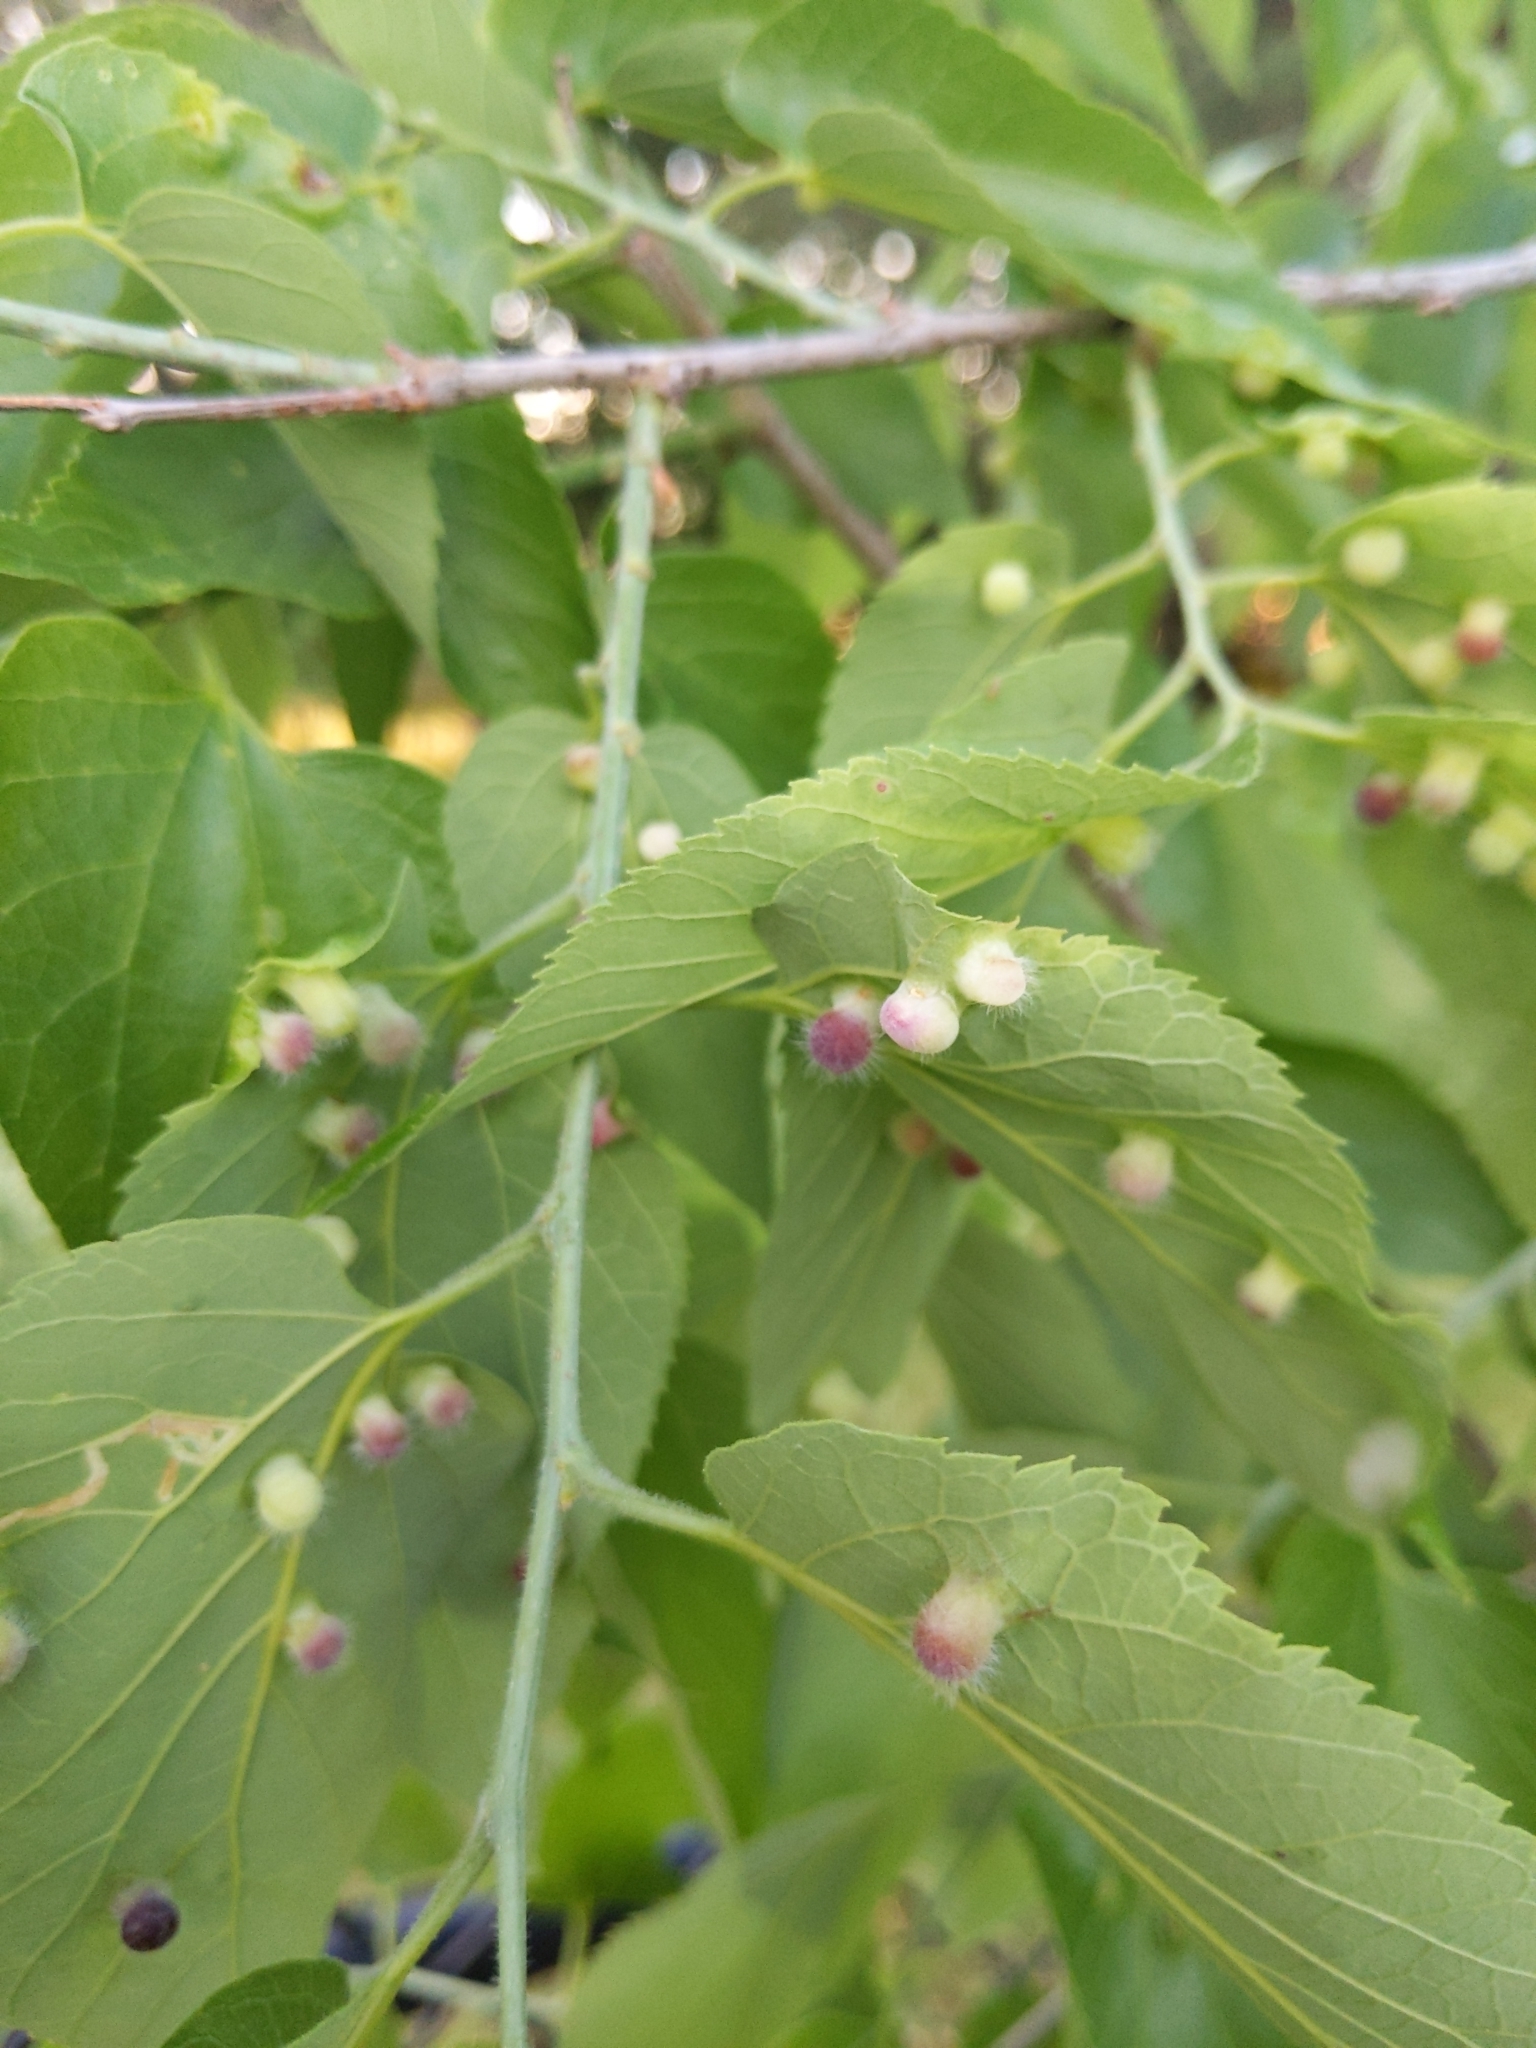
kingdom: Animalia
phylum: Arthropoda
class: Insecta
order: Hemiptera
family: Aphalaridae
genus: Pachypsylla
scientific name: Pachypsylla celtidismamma
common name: Hackberry nipplegall psyllid
